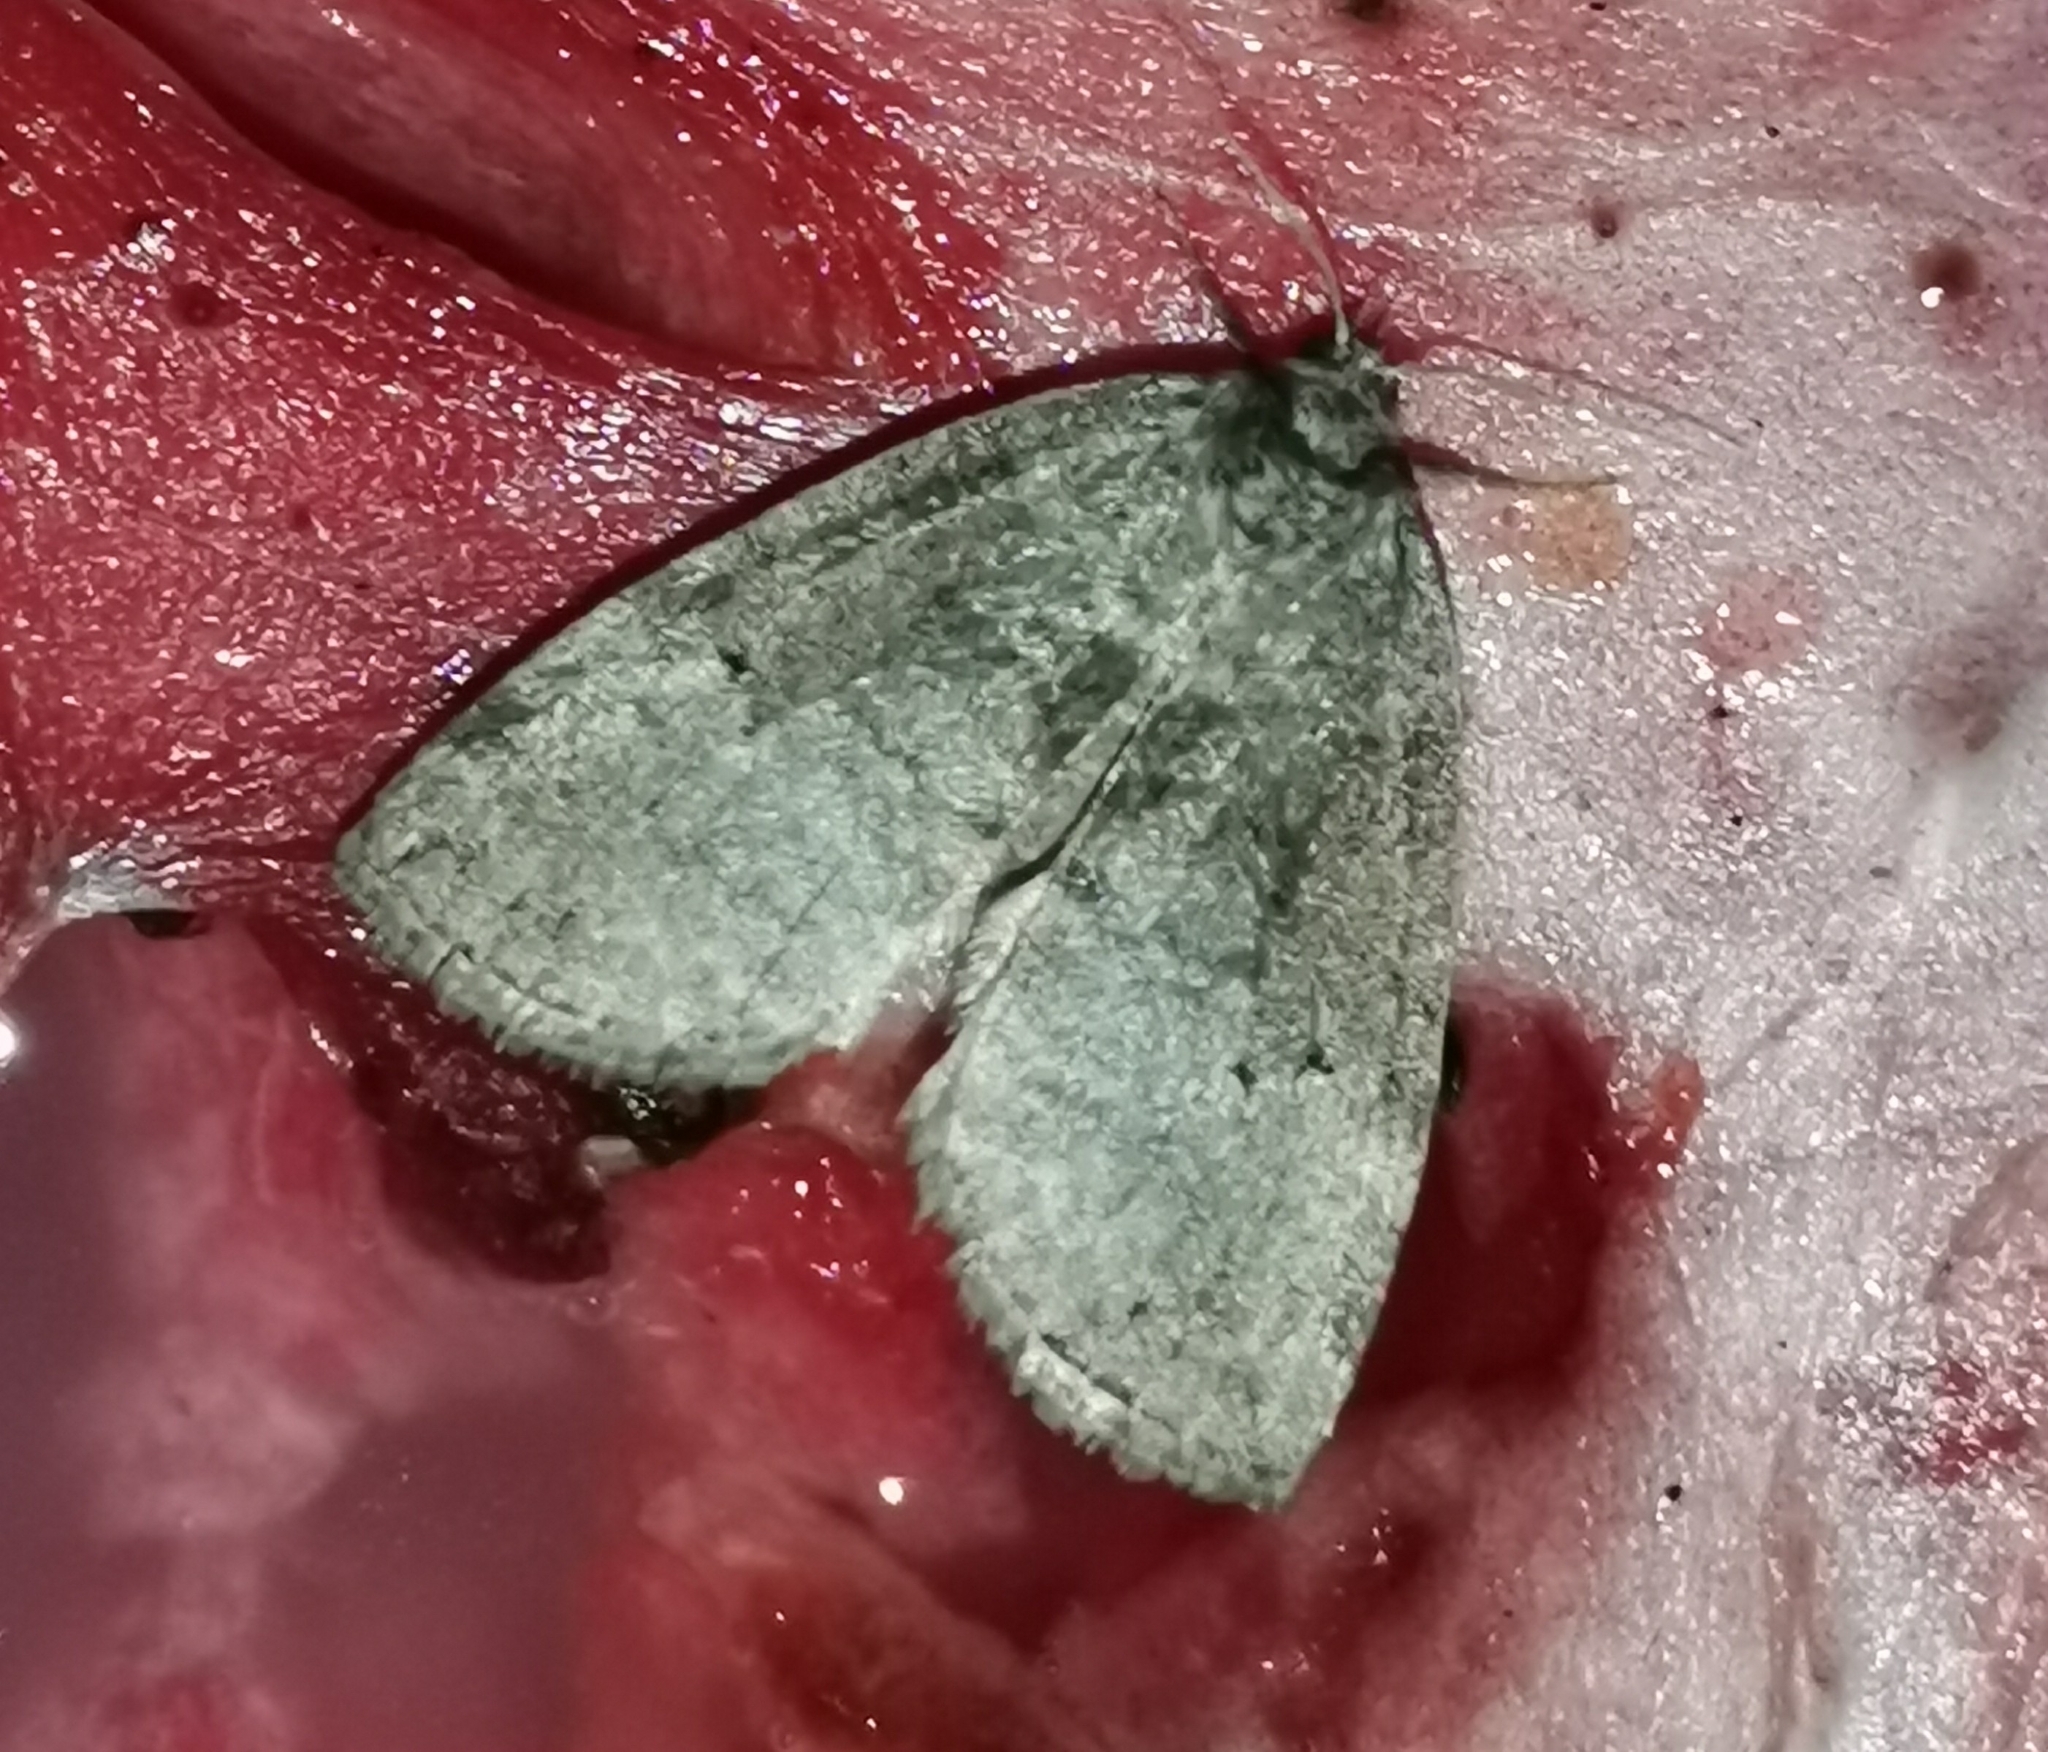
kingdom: Animalia
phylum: Arthropoda
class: Insecta
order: Lepidoptera
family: Drepanidae
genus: Ochropacha
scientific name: Ochropacha duplaris
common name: Common lutestring
